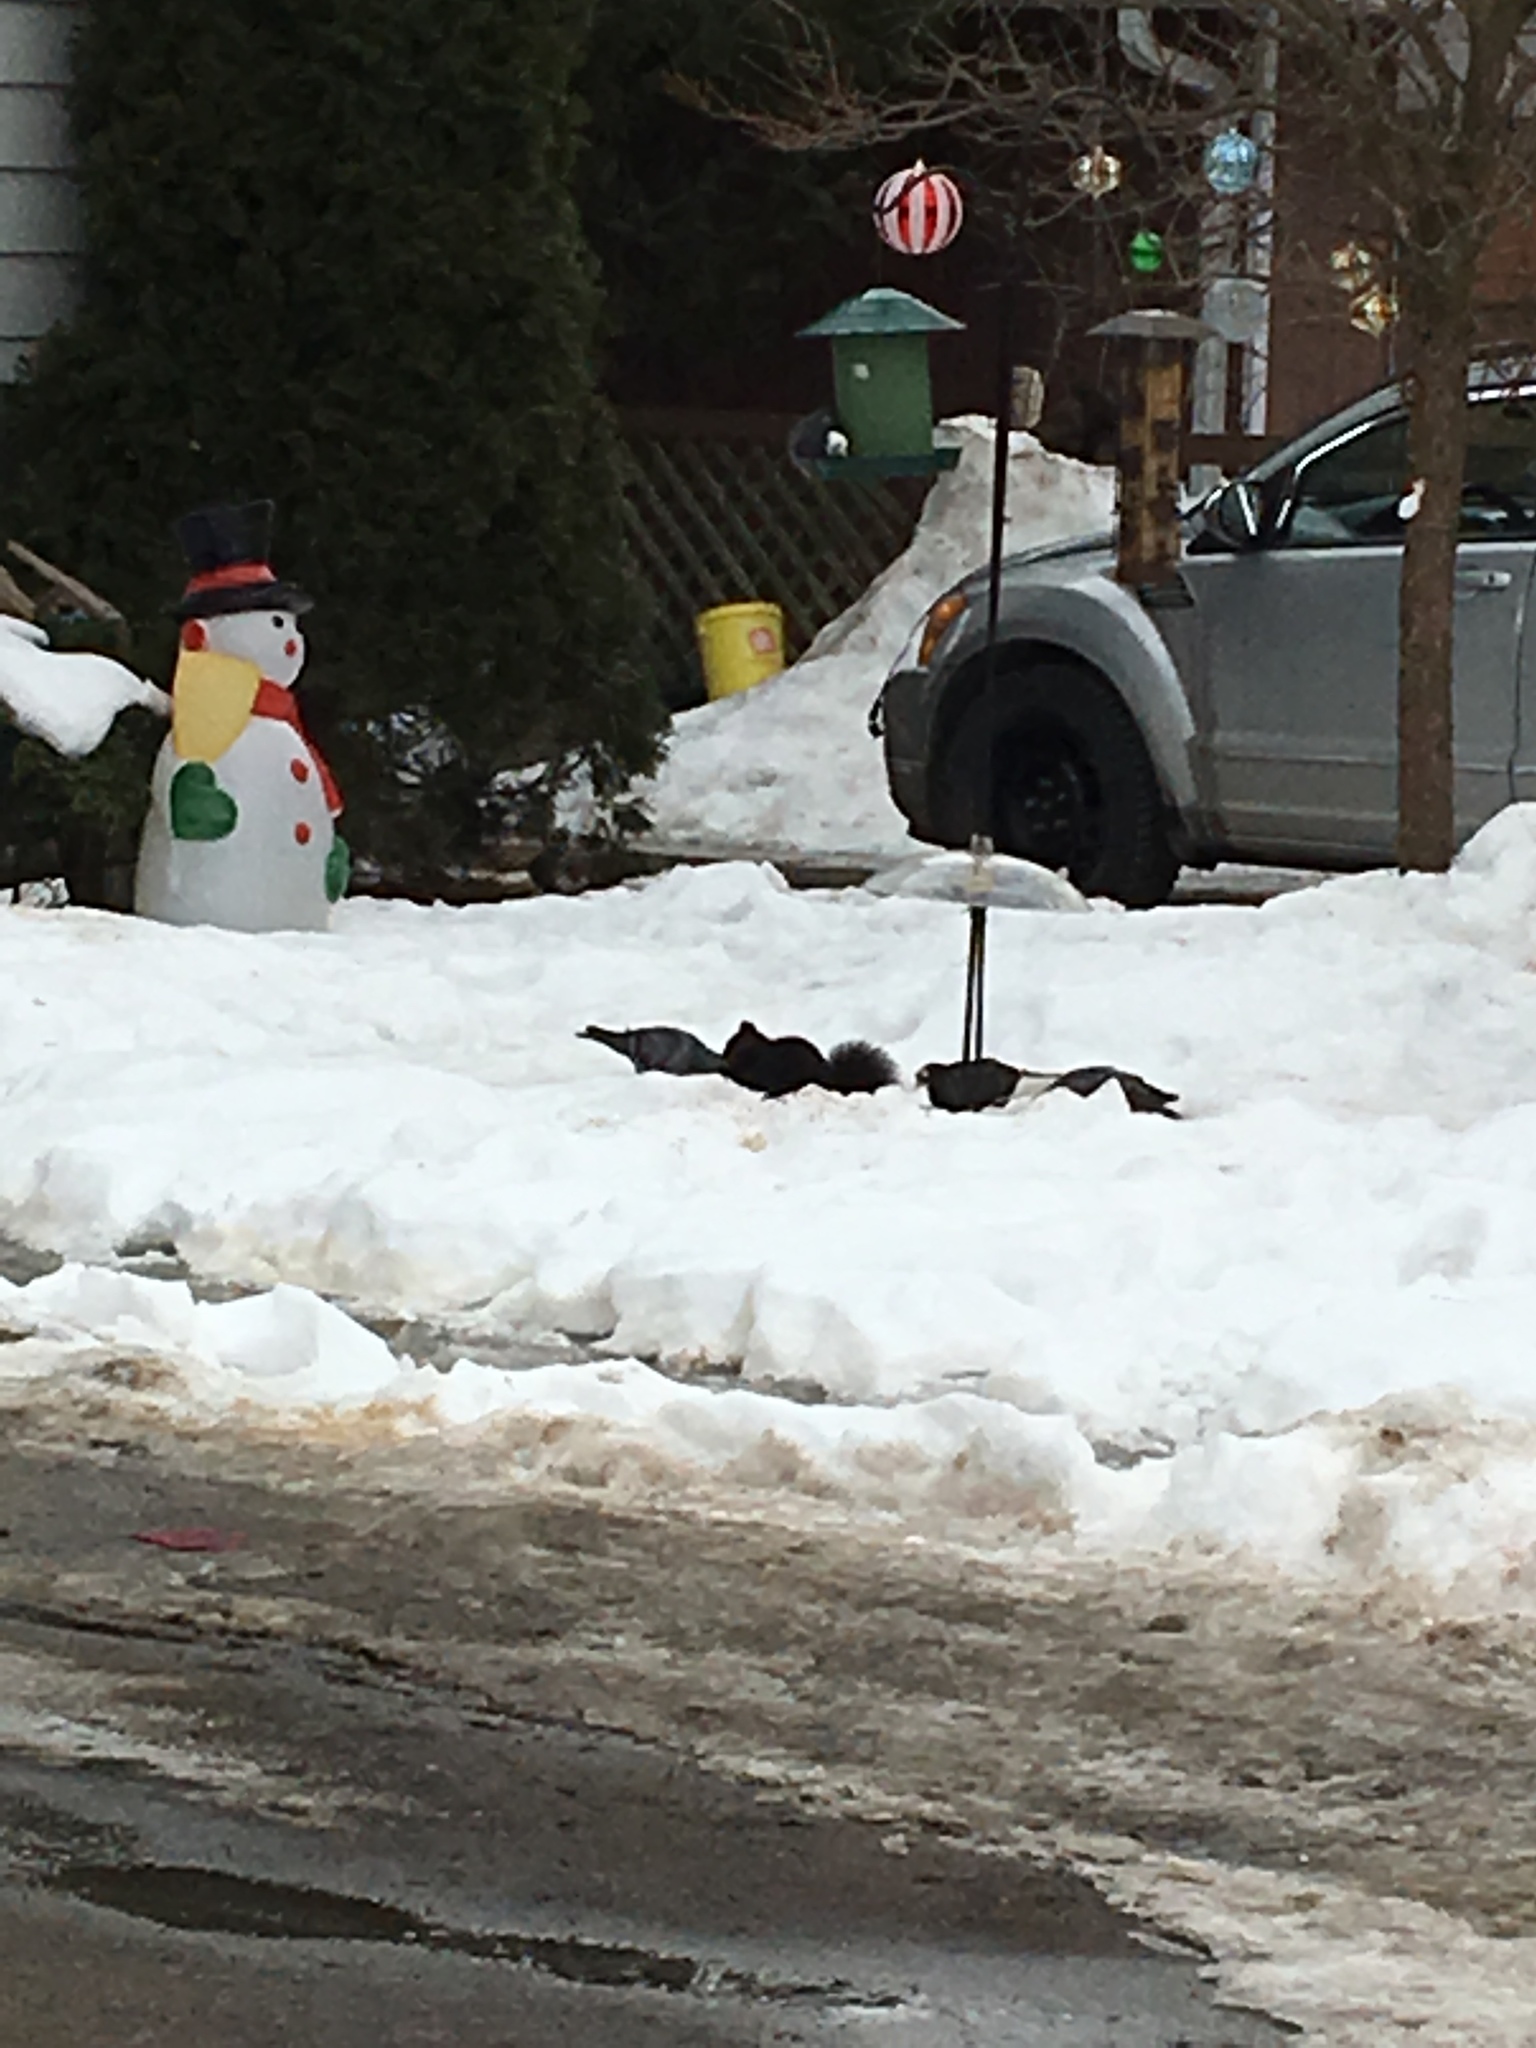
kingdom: Animalia
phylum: Chordata
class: Mammalia
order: Rodentia
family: Sciuridae
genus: Sciurus
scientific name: Sciurus carolinensis
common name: Eastern gray squirrel
